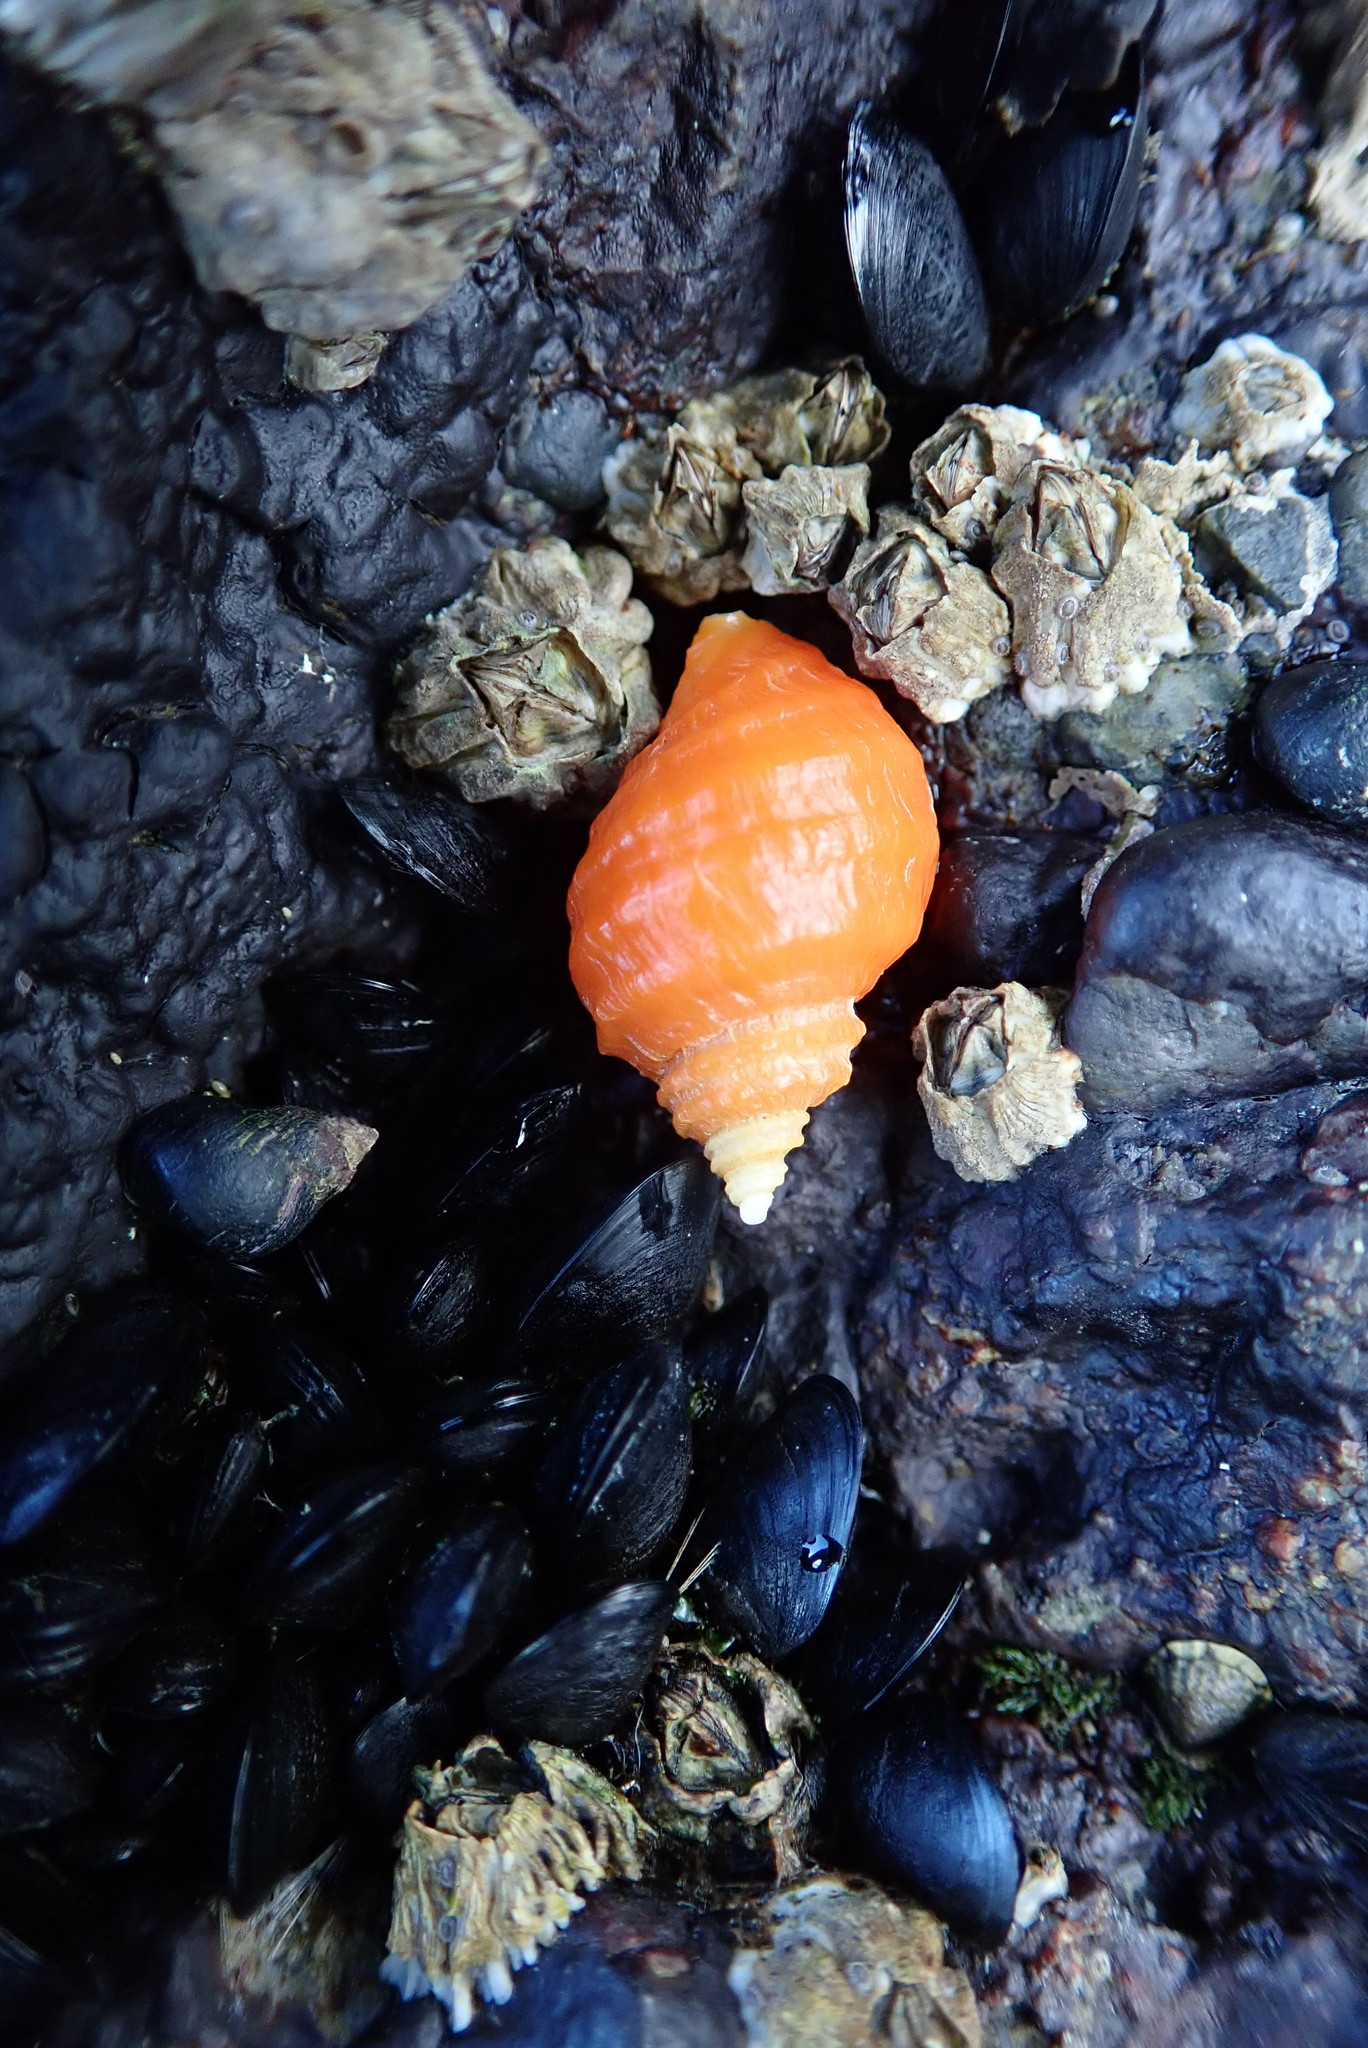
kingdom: Animalia
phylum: Mollusca
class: Gastropoda
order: Neogastropoda
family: Muricidae
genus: Nucella
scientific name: Nucella ostrina
